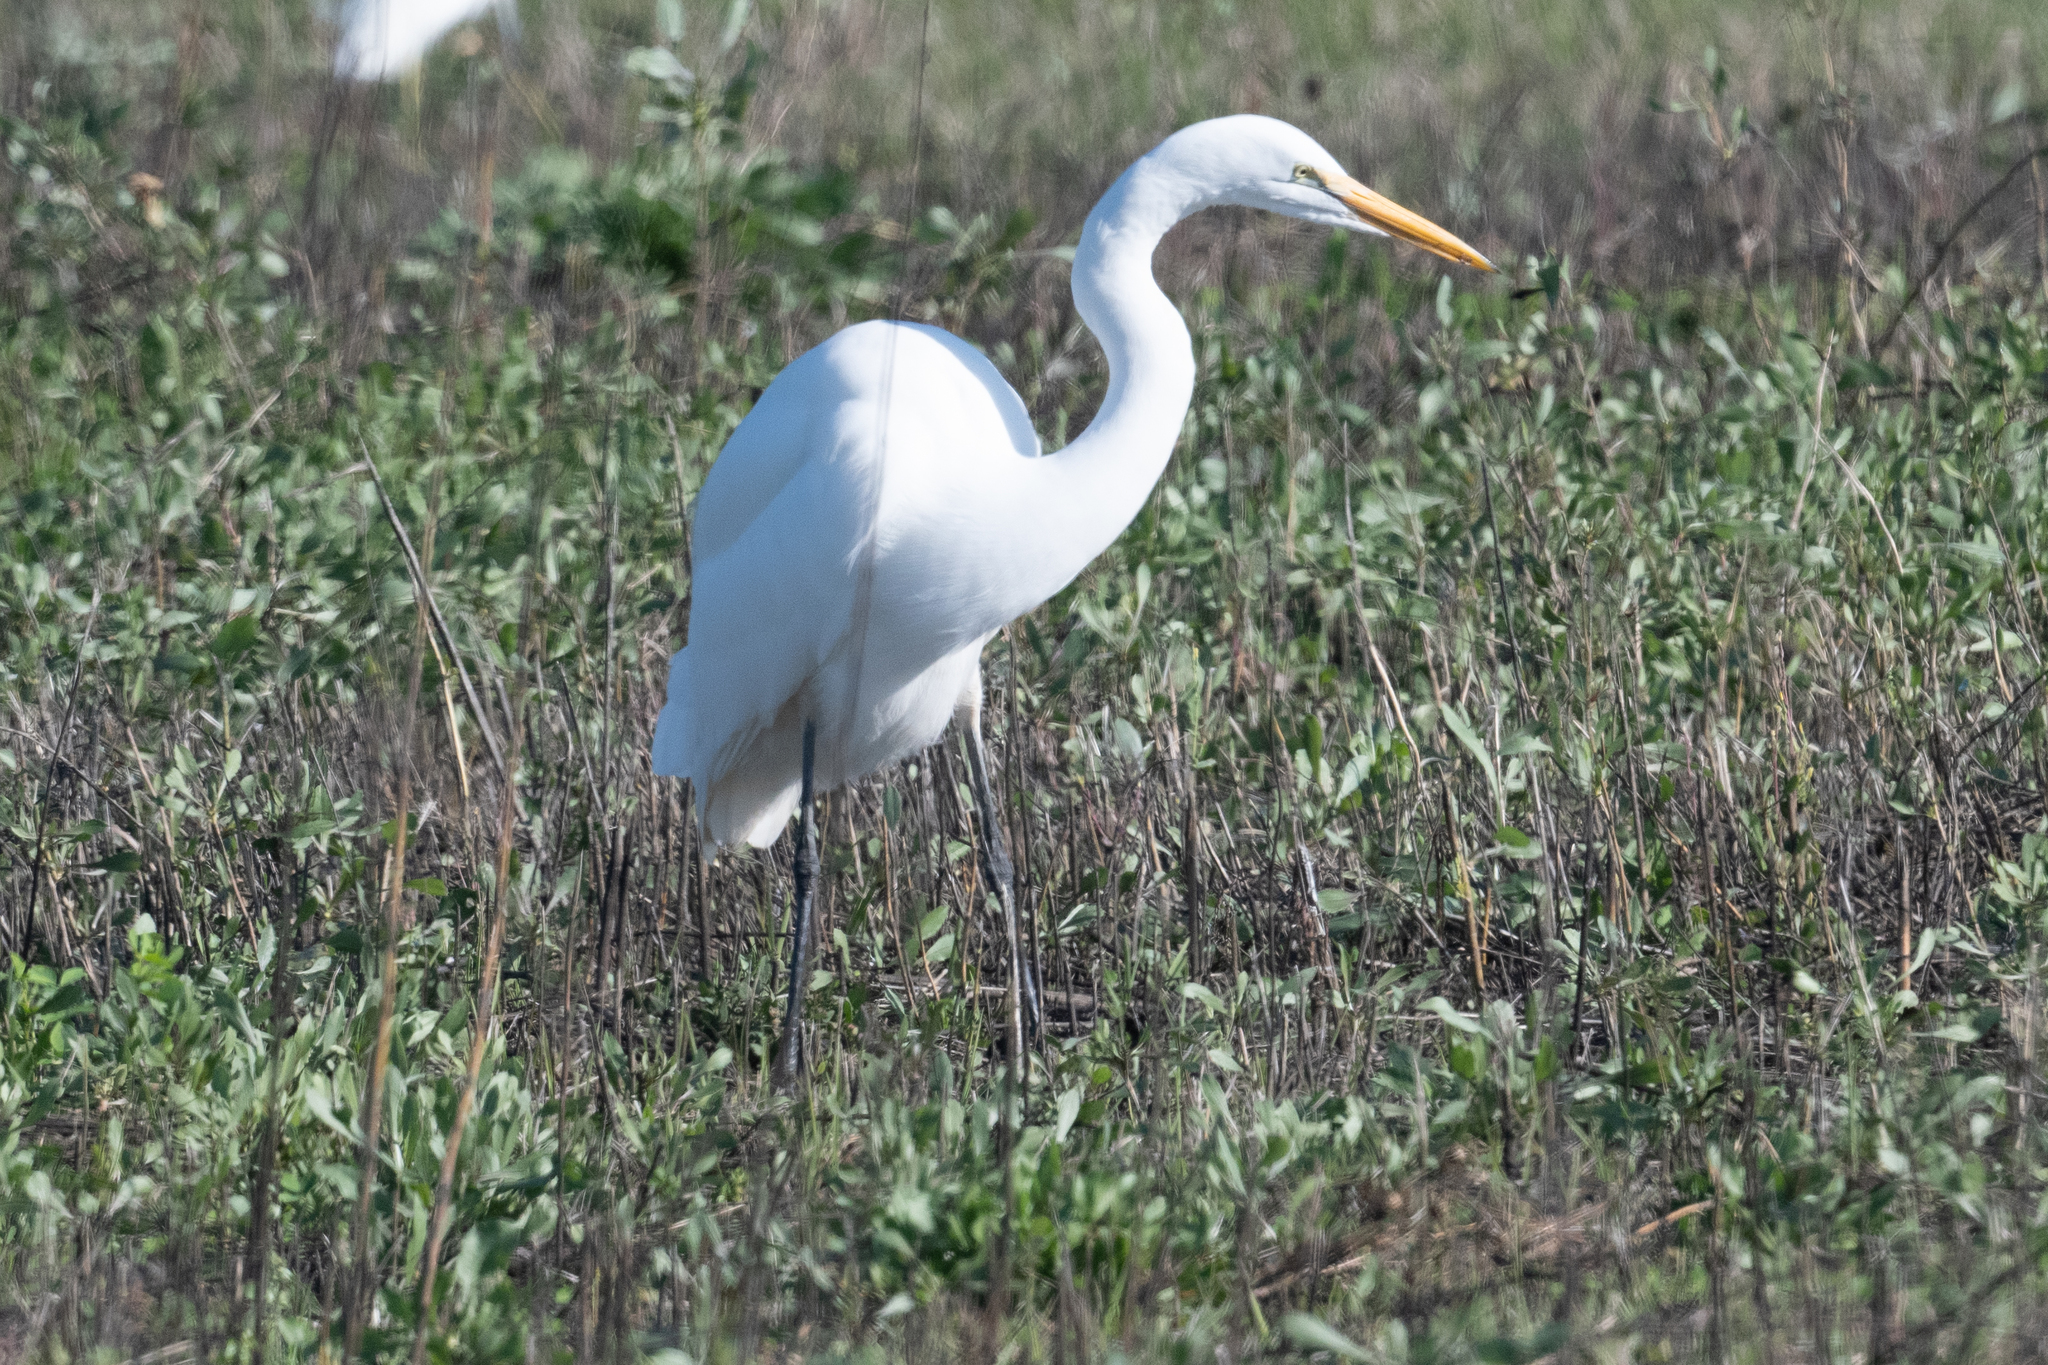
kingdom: Animalia
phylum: Chordata
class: Aves
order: Pelecaniformes
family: Ardeidae
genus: Ardea
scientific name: Ardea alba
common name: Great egret
